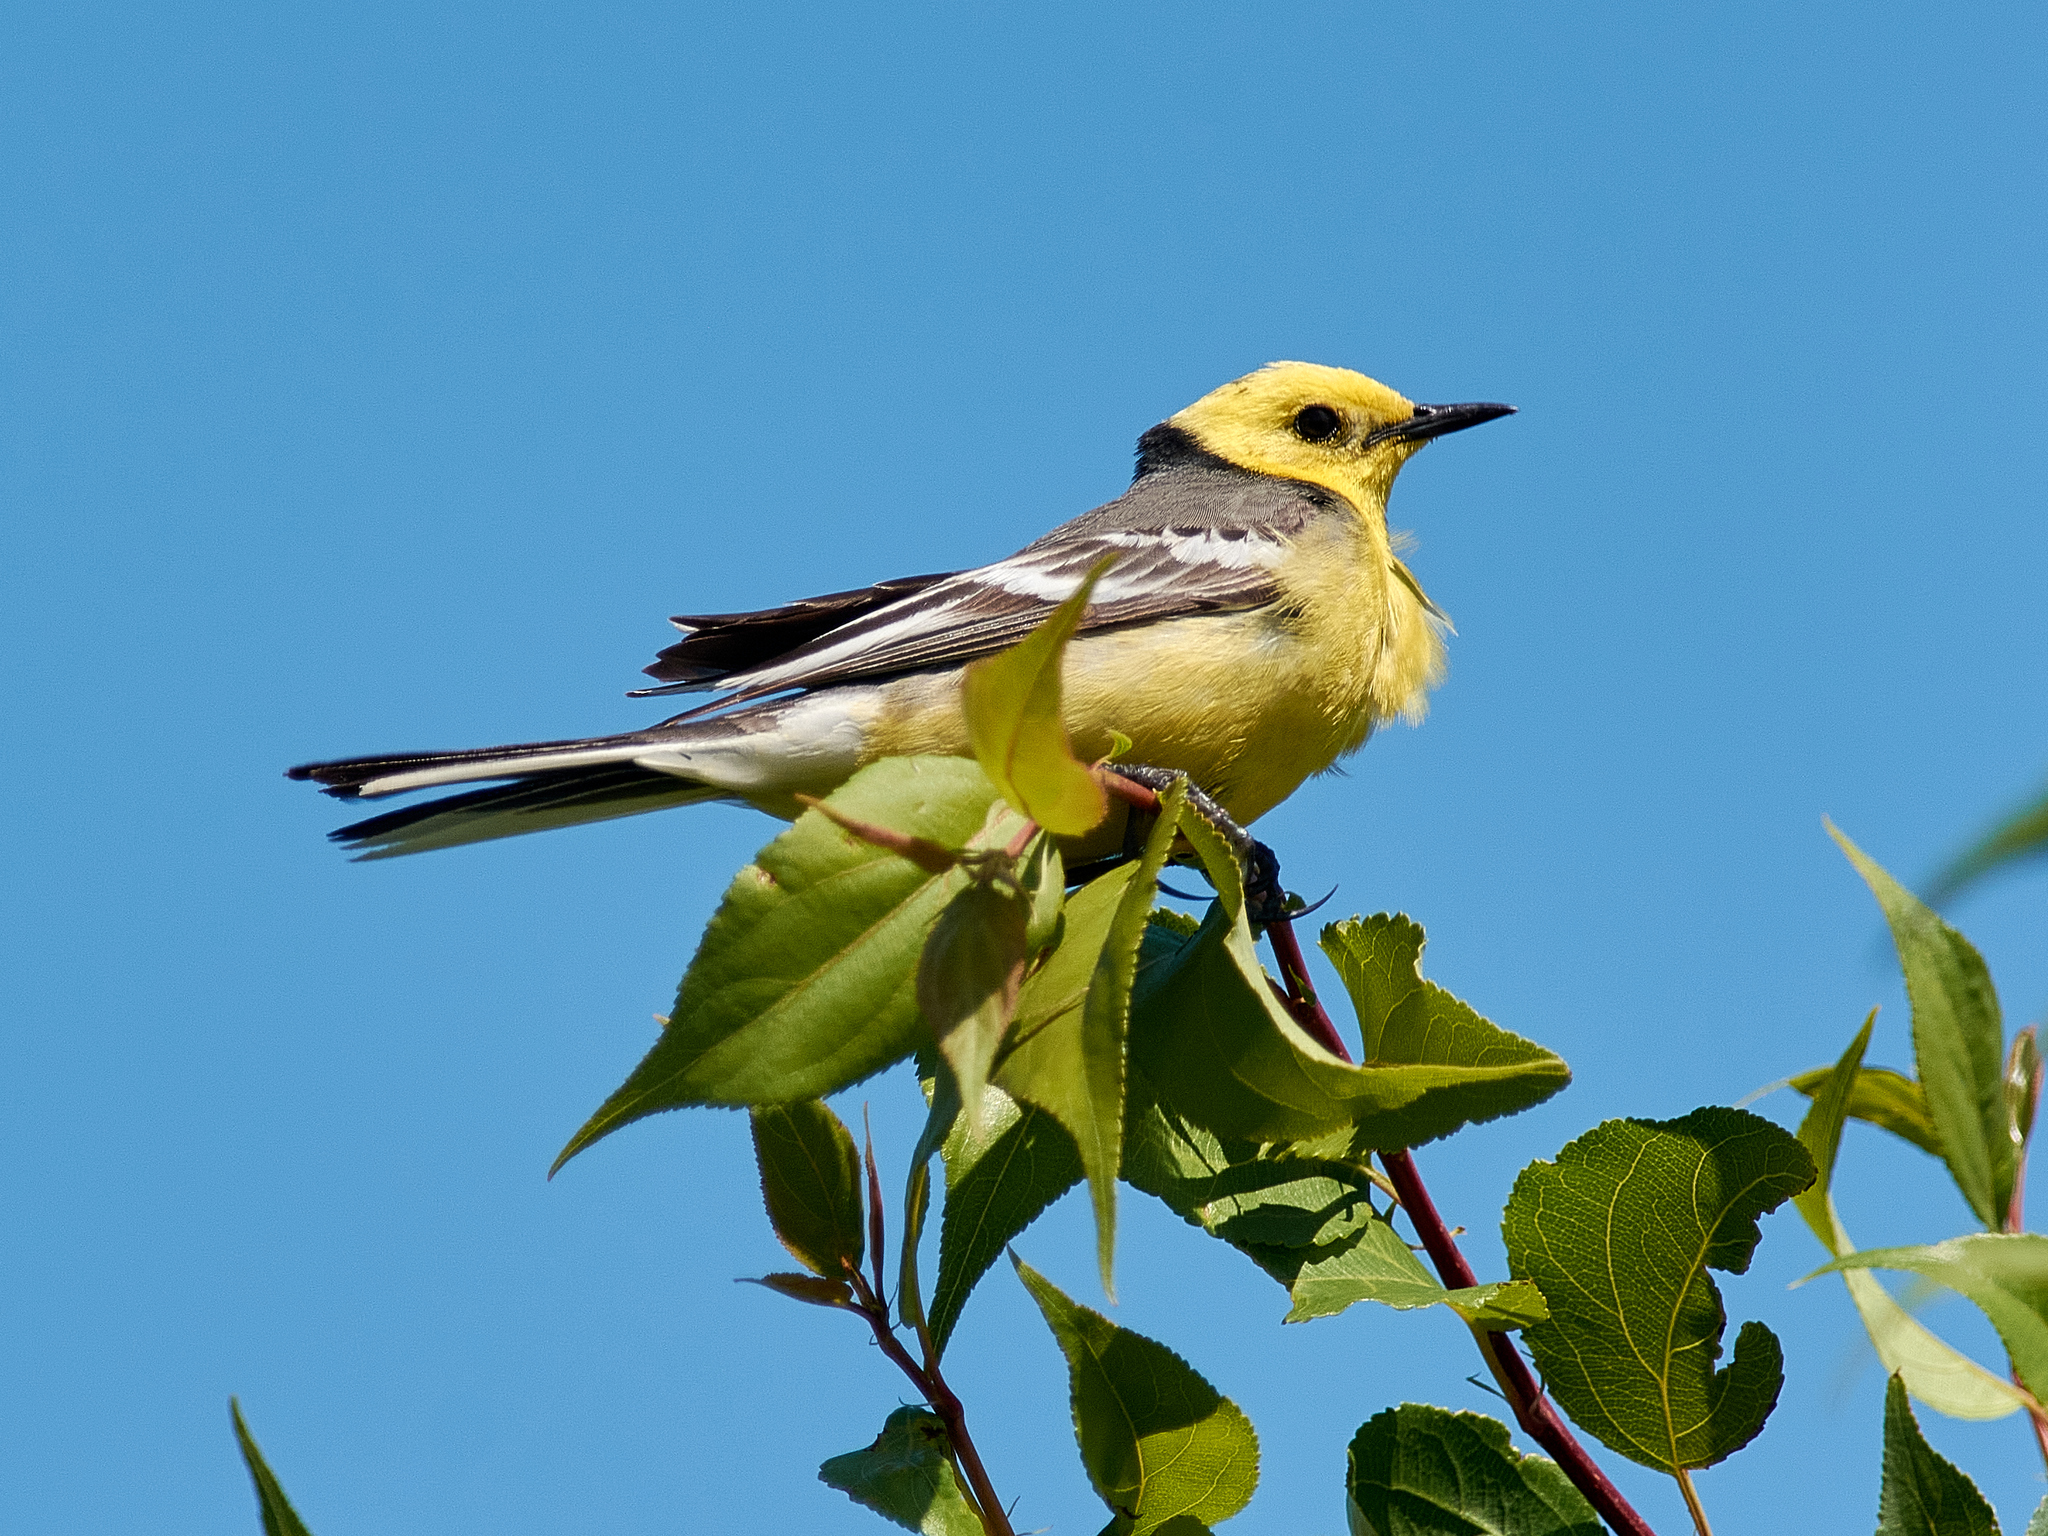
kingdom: Animalia
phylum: Chordata
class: Aves
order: Passeriformes
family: Motacillidae
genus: Motacilla
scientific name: Motacilla citreola
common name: Citrine wagtail
